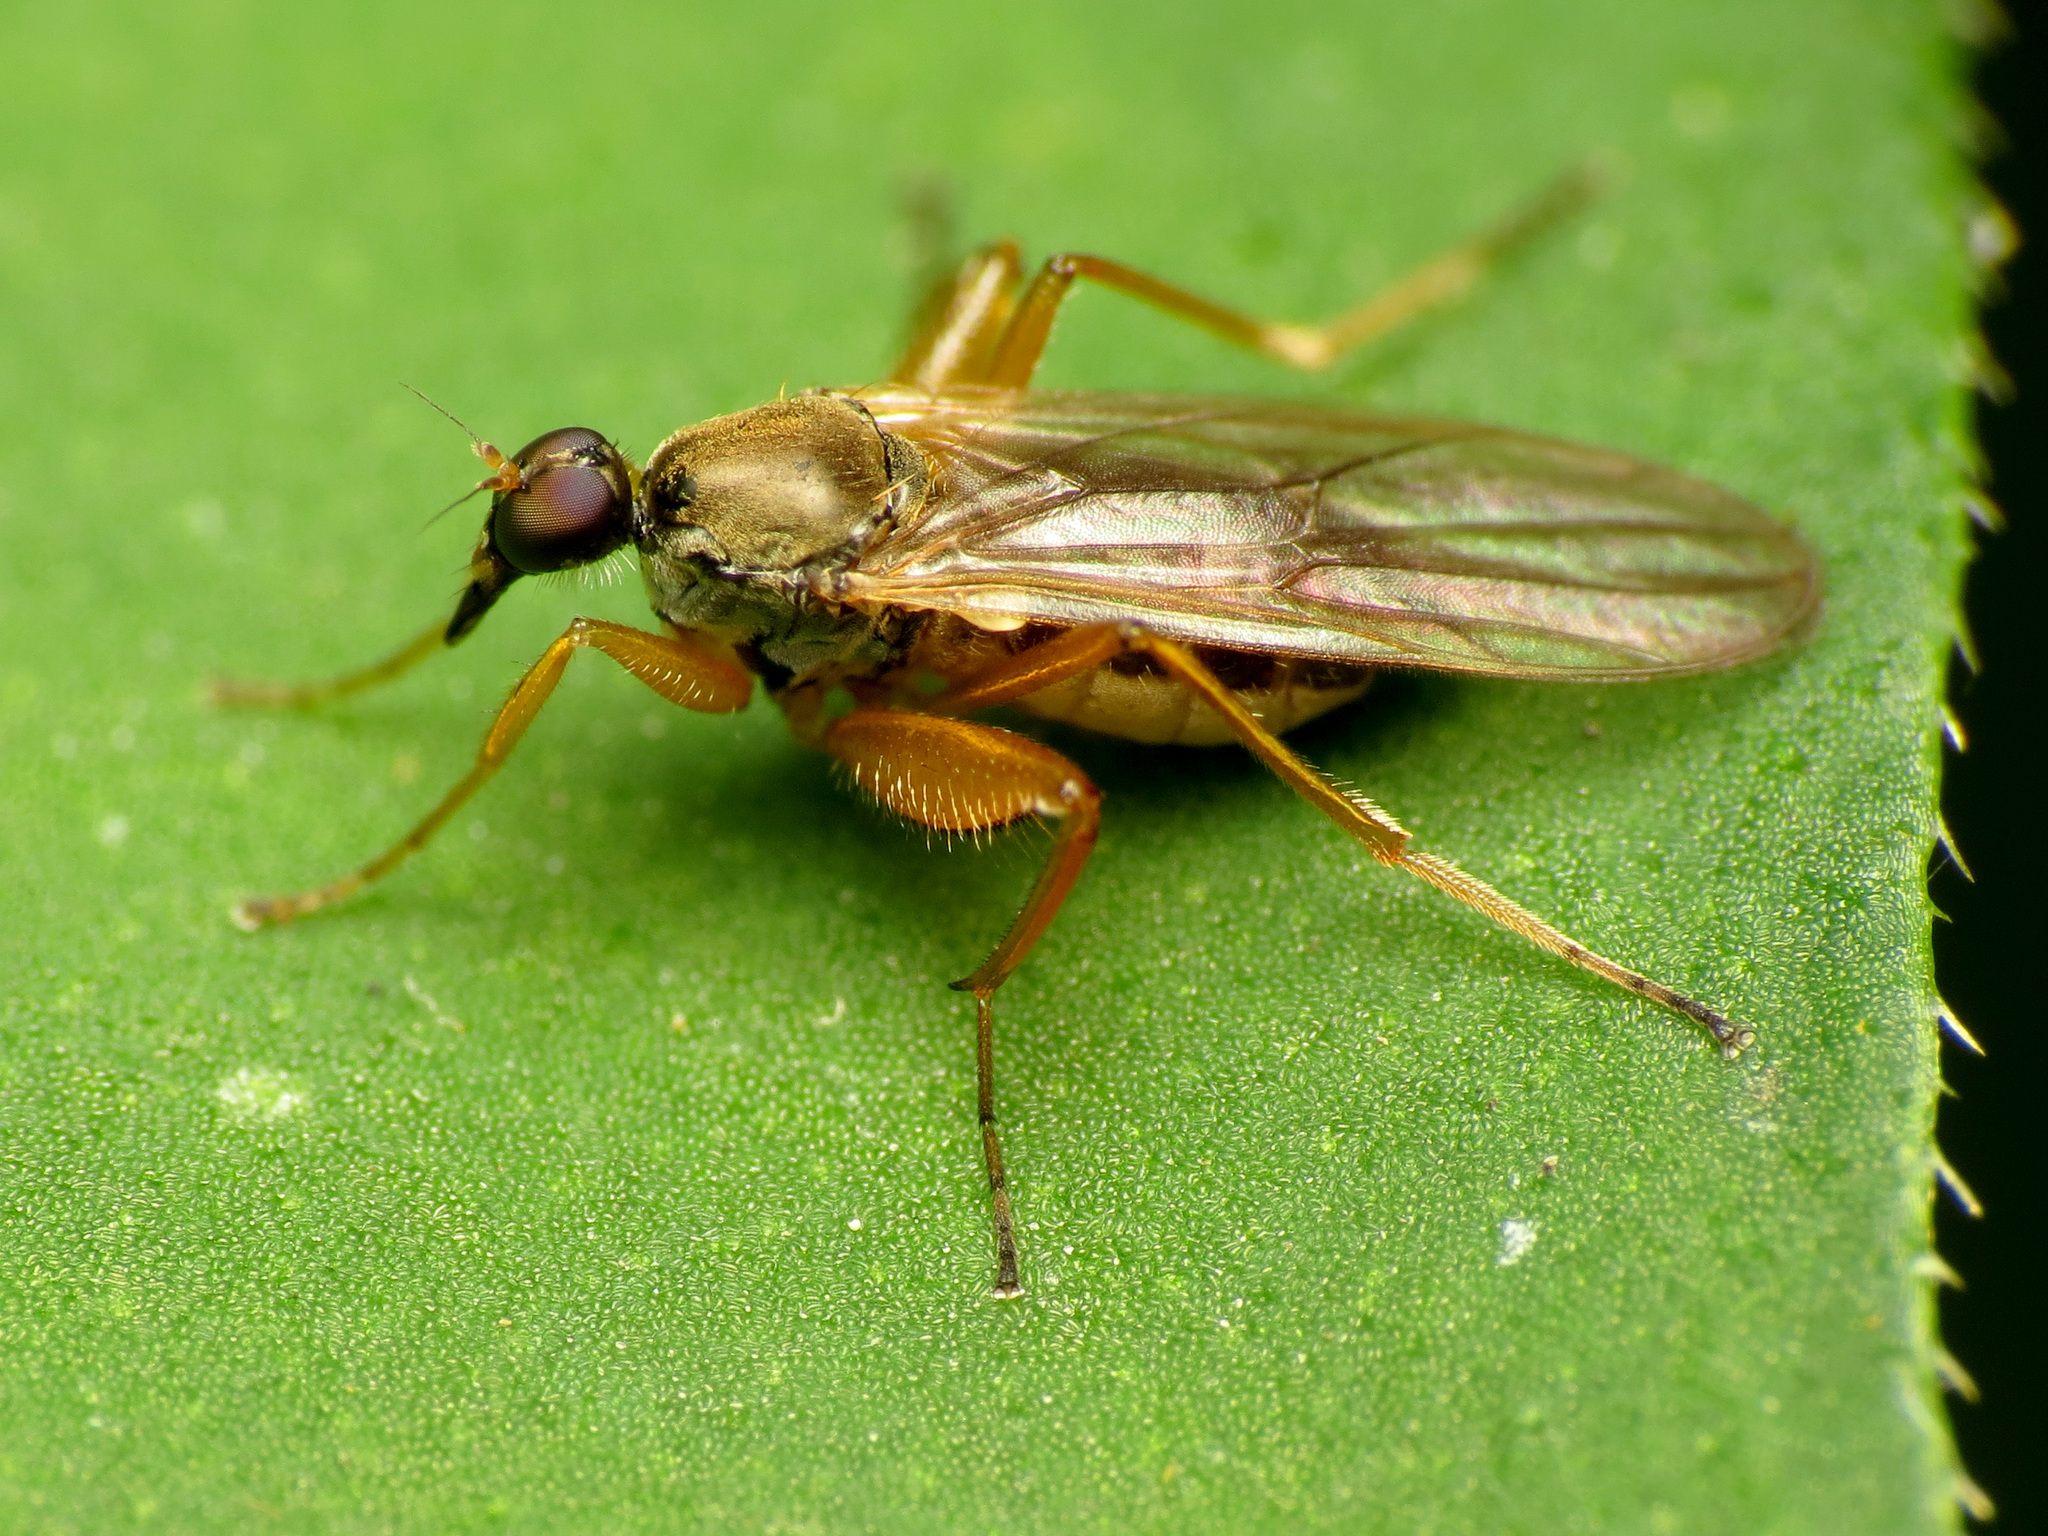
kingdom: Animalia
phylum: Arthropoda
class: Insecta
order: Diptera
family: Hybotidae
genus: Platypalpus
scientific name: Platypalpus discifer
